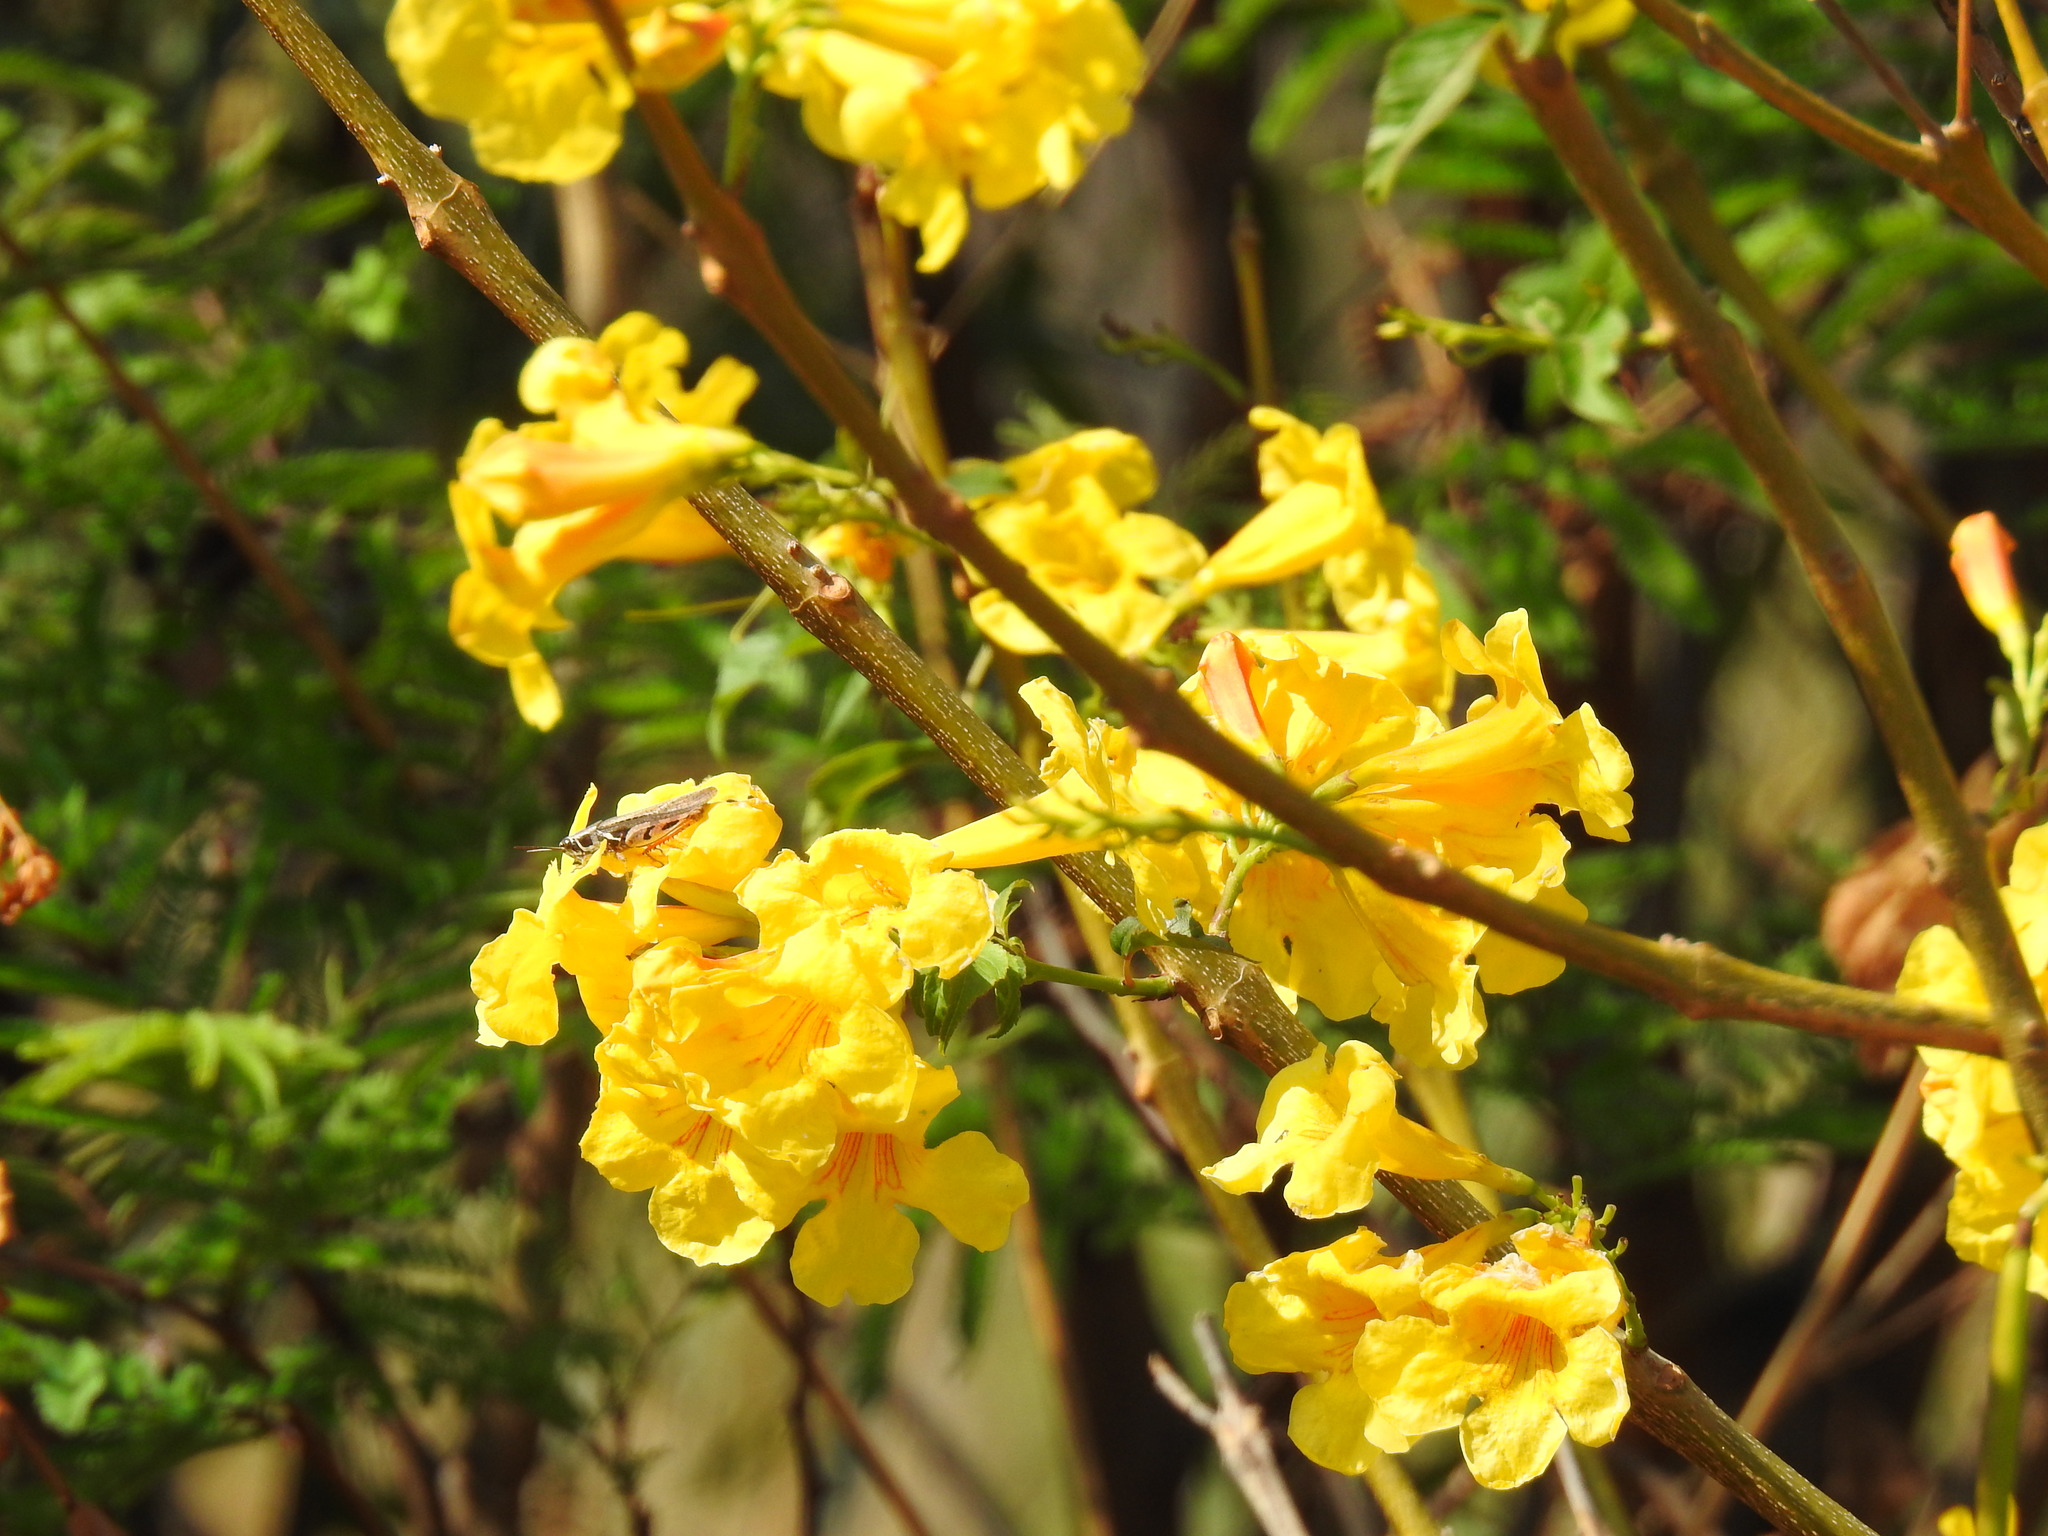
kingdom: Plantae
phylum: Tracheophyta
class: Magnoliopsida
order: Lamiales
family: Bignoniaceae
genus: Tecoma
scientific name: Tecoma stans
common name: Yellow trumpetbush
